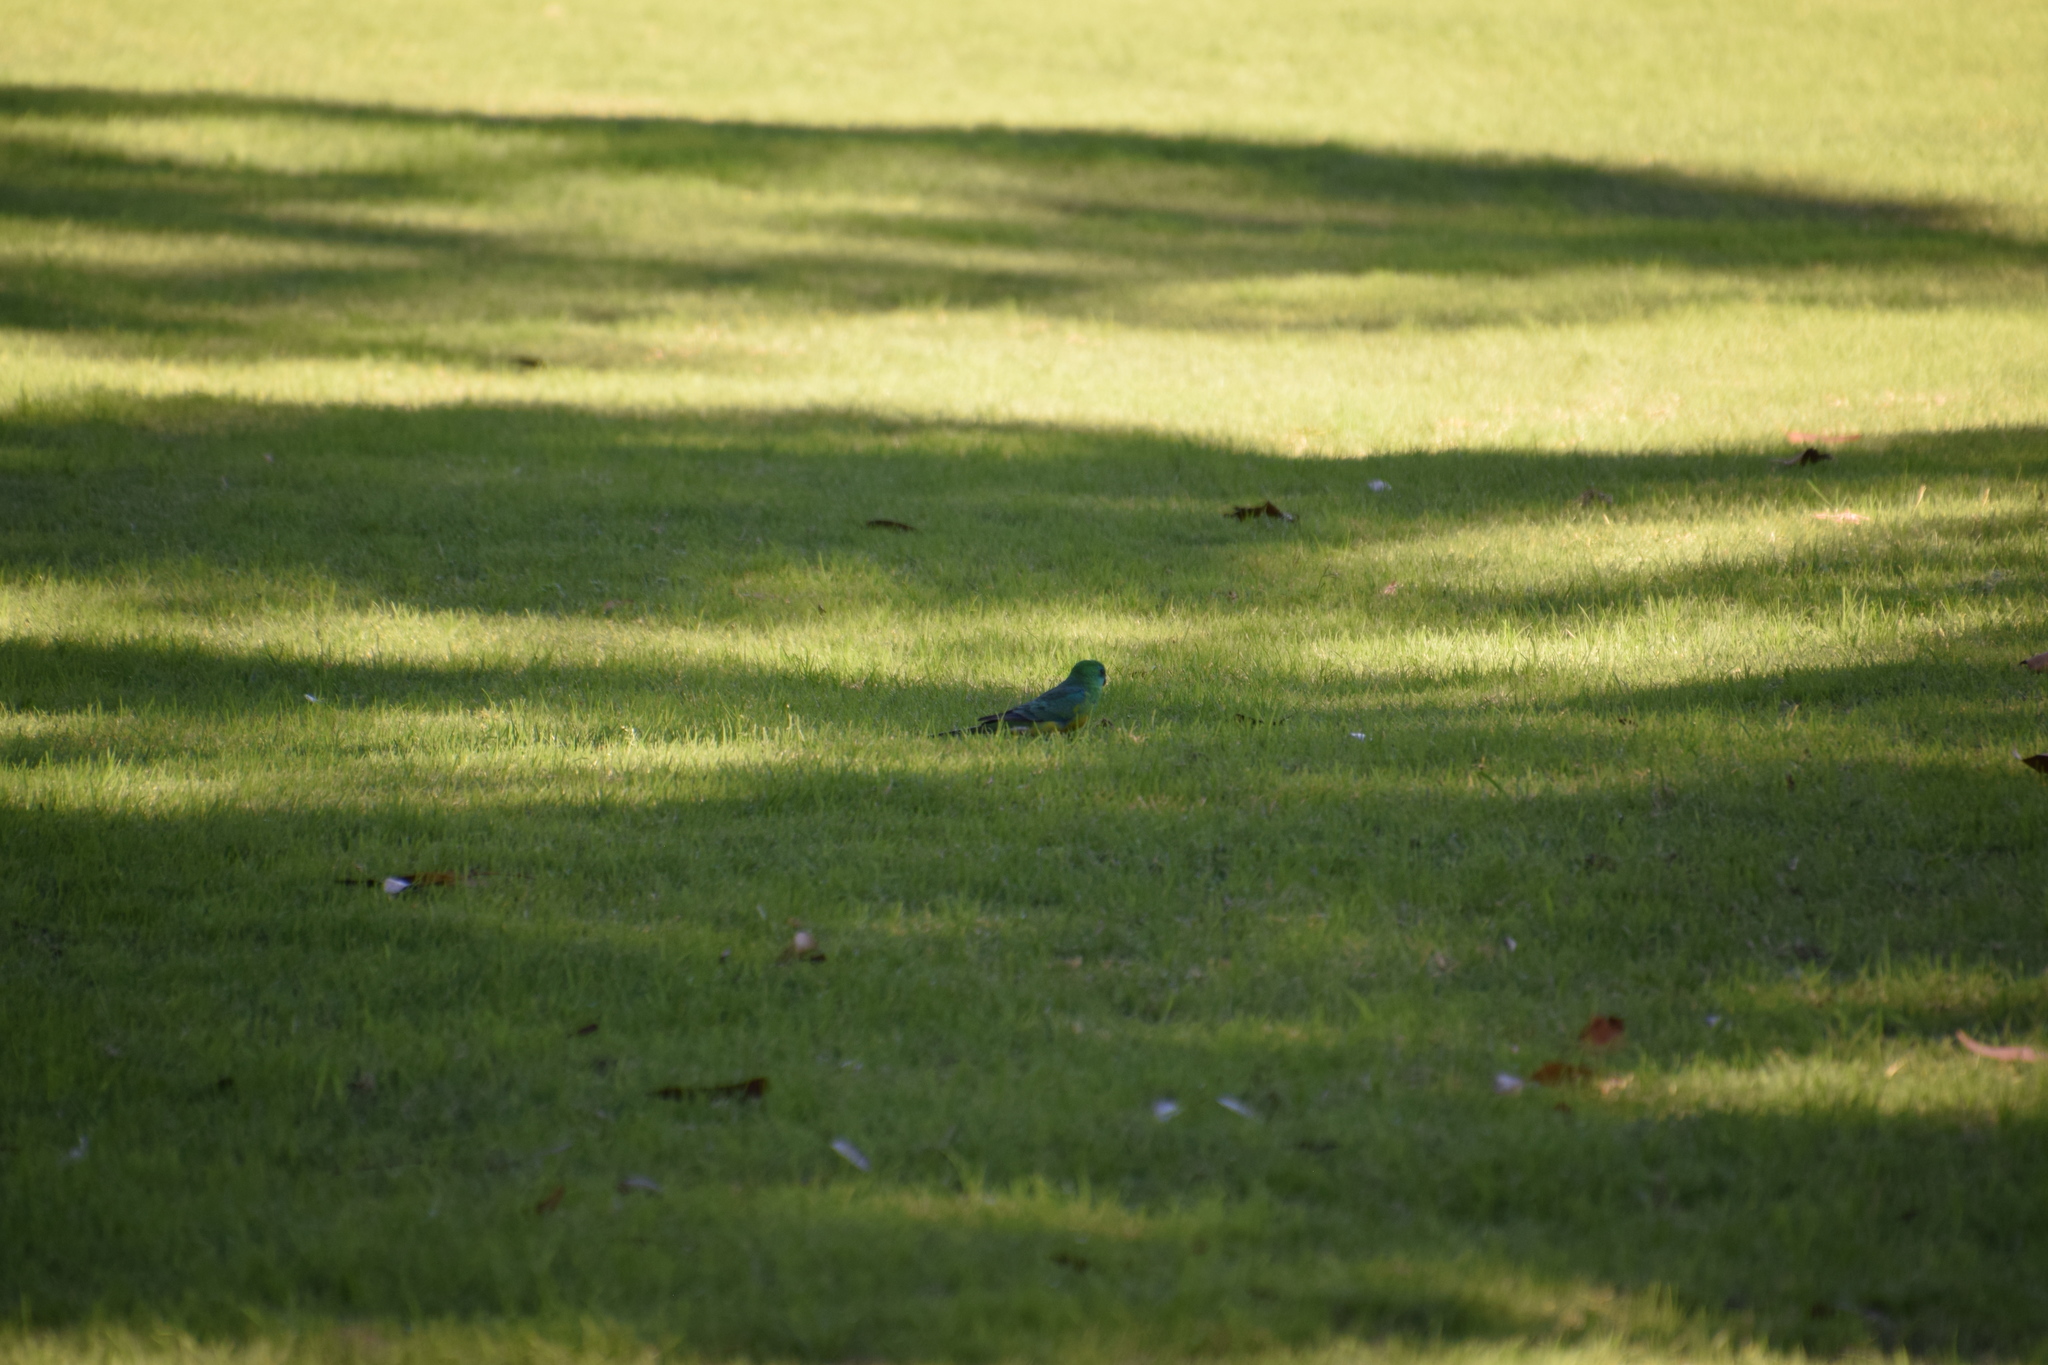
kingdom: Animalia
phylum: Chordata
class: Aves
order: Psittaciformes
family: Psittacidae
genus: Psephotus
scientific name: Psephotus haematonotus
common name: Red-rumped parrot
